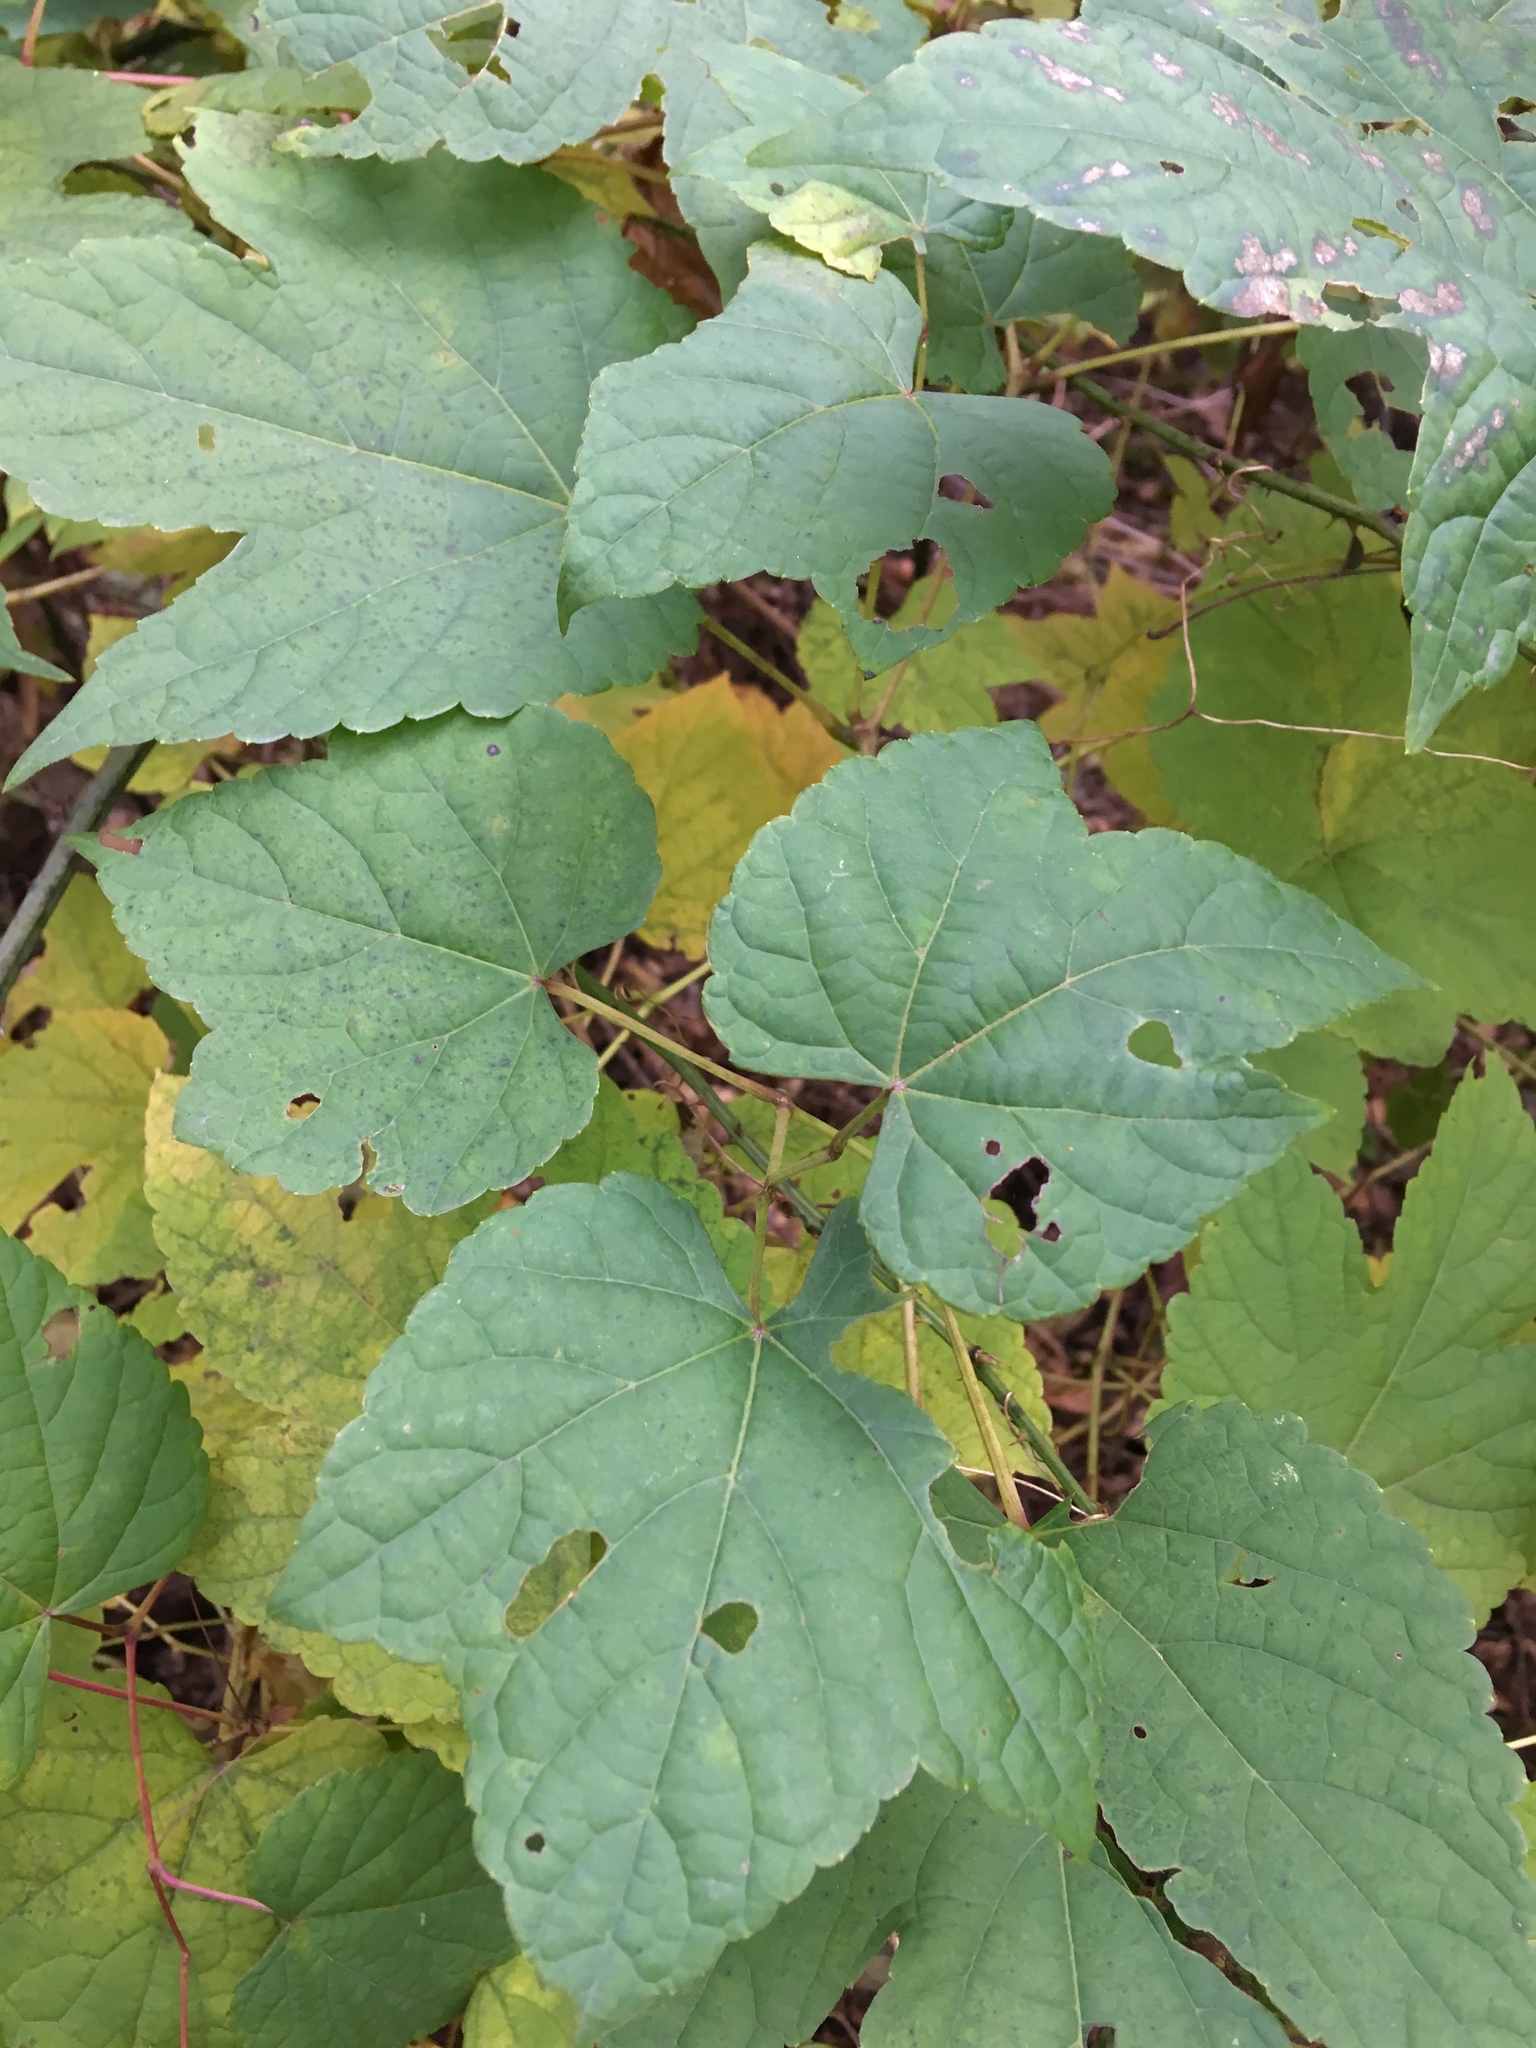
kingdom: Plantae
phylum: Tracheophyta
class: Magnoliopsida
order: Vitales
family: Vitaceae
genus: Ampelopsis
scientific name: Ampelopsis glandulosa
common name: Amur peppervine
